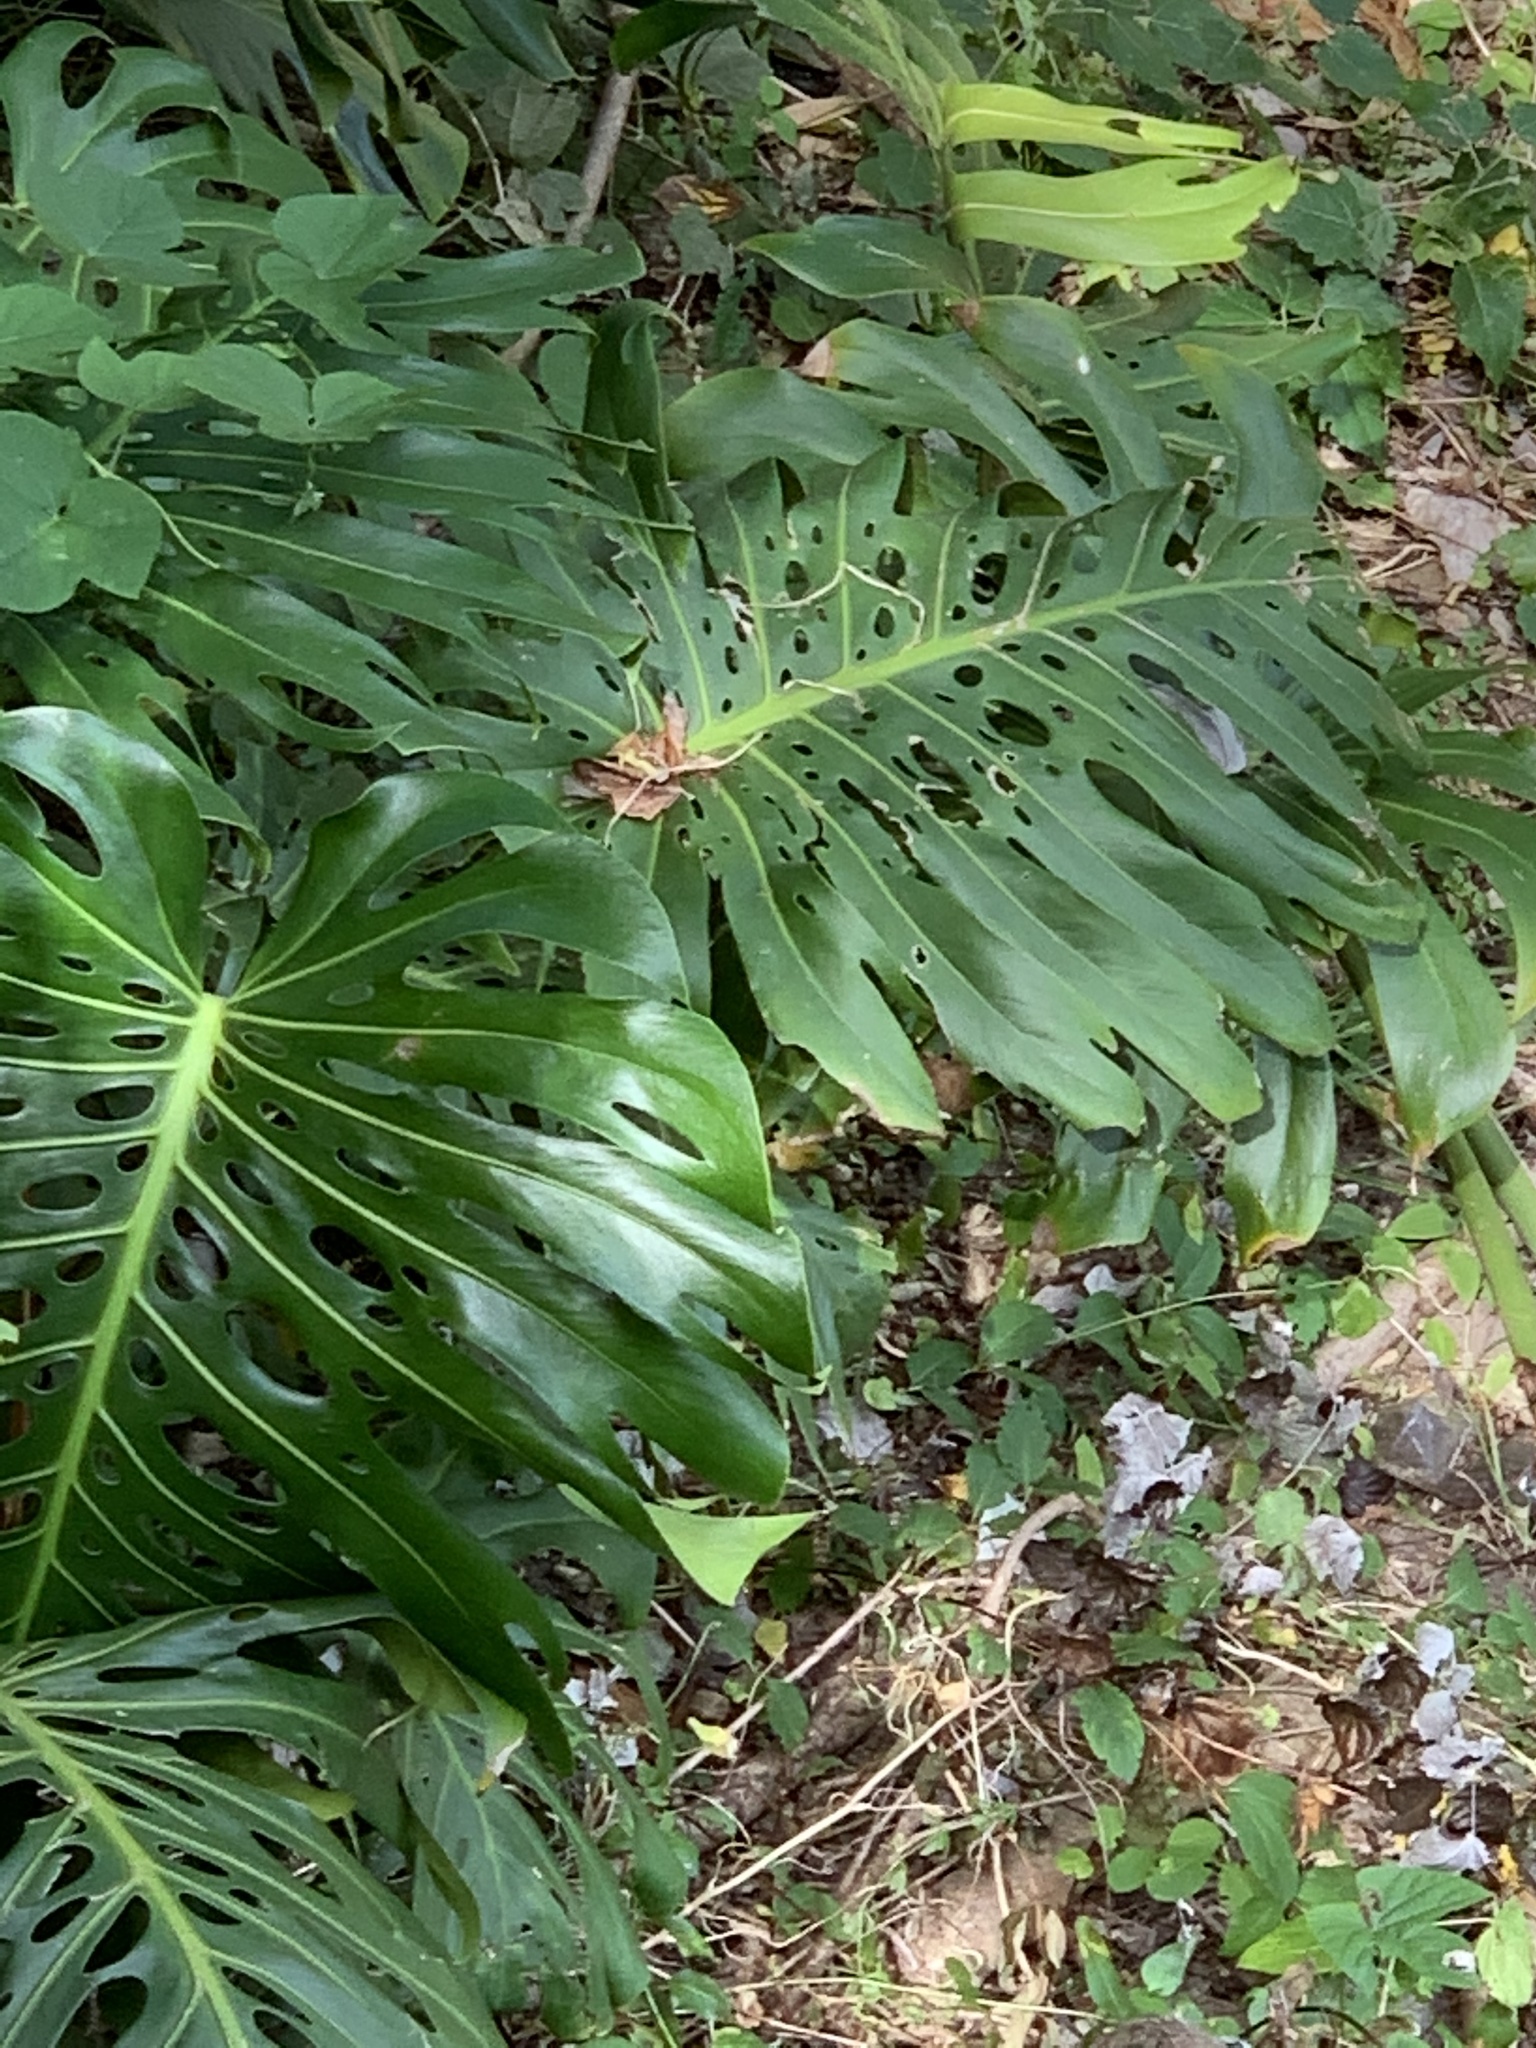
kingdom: Plantae
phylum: Tracheophyta
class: Liliopsida
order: Alismatales
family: Araceae
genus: Monstera
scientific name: Monstera deliciosa
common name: Cut-leaf-philodendron
